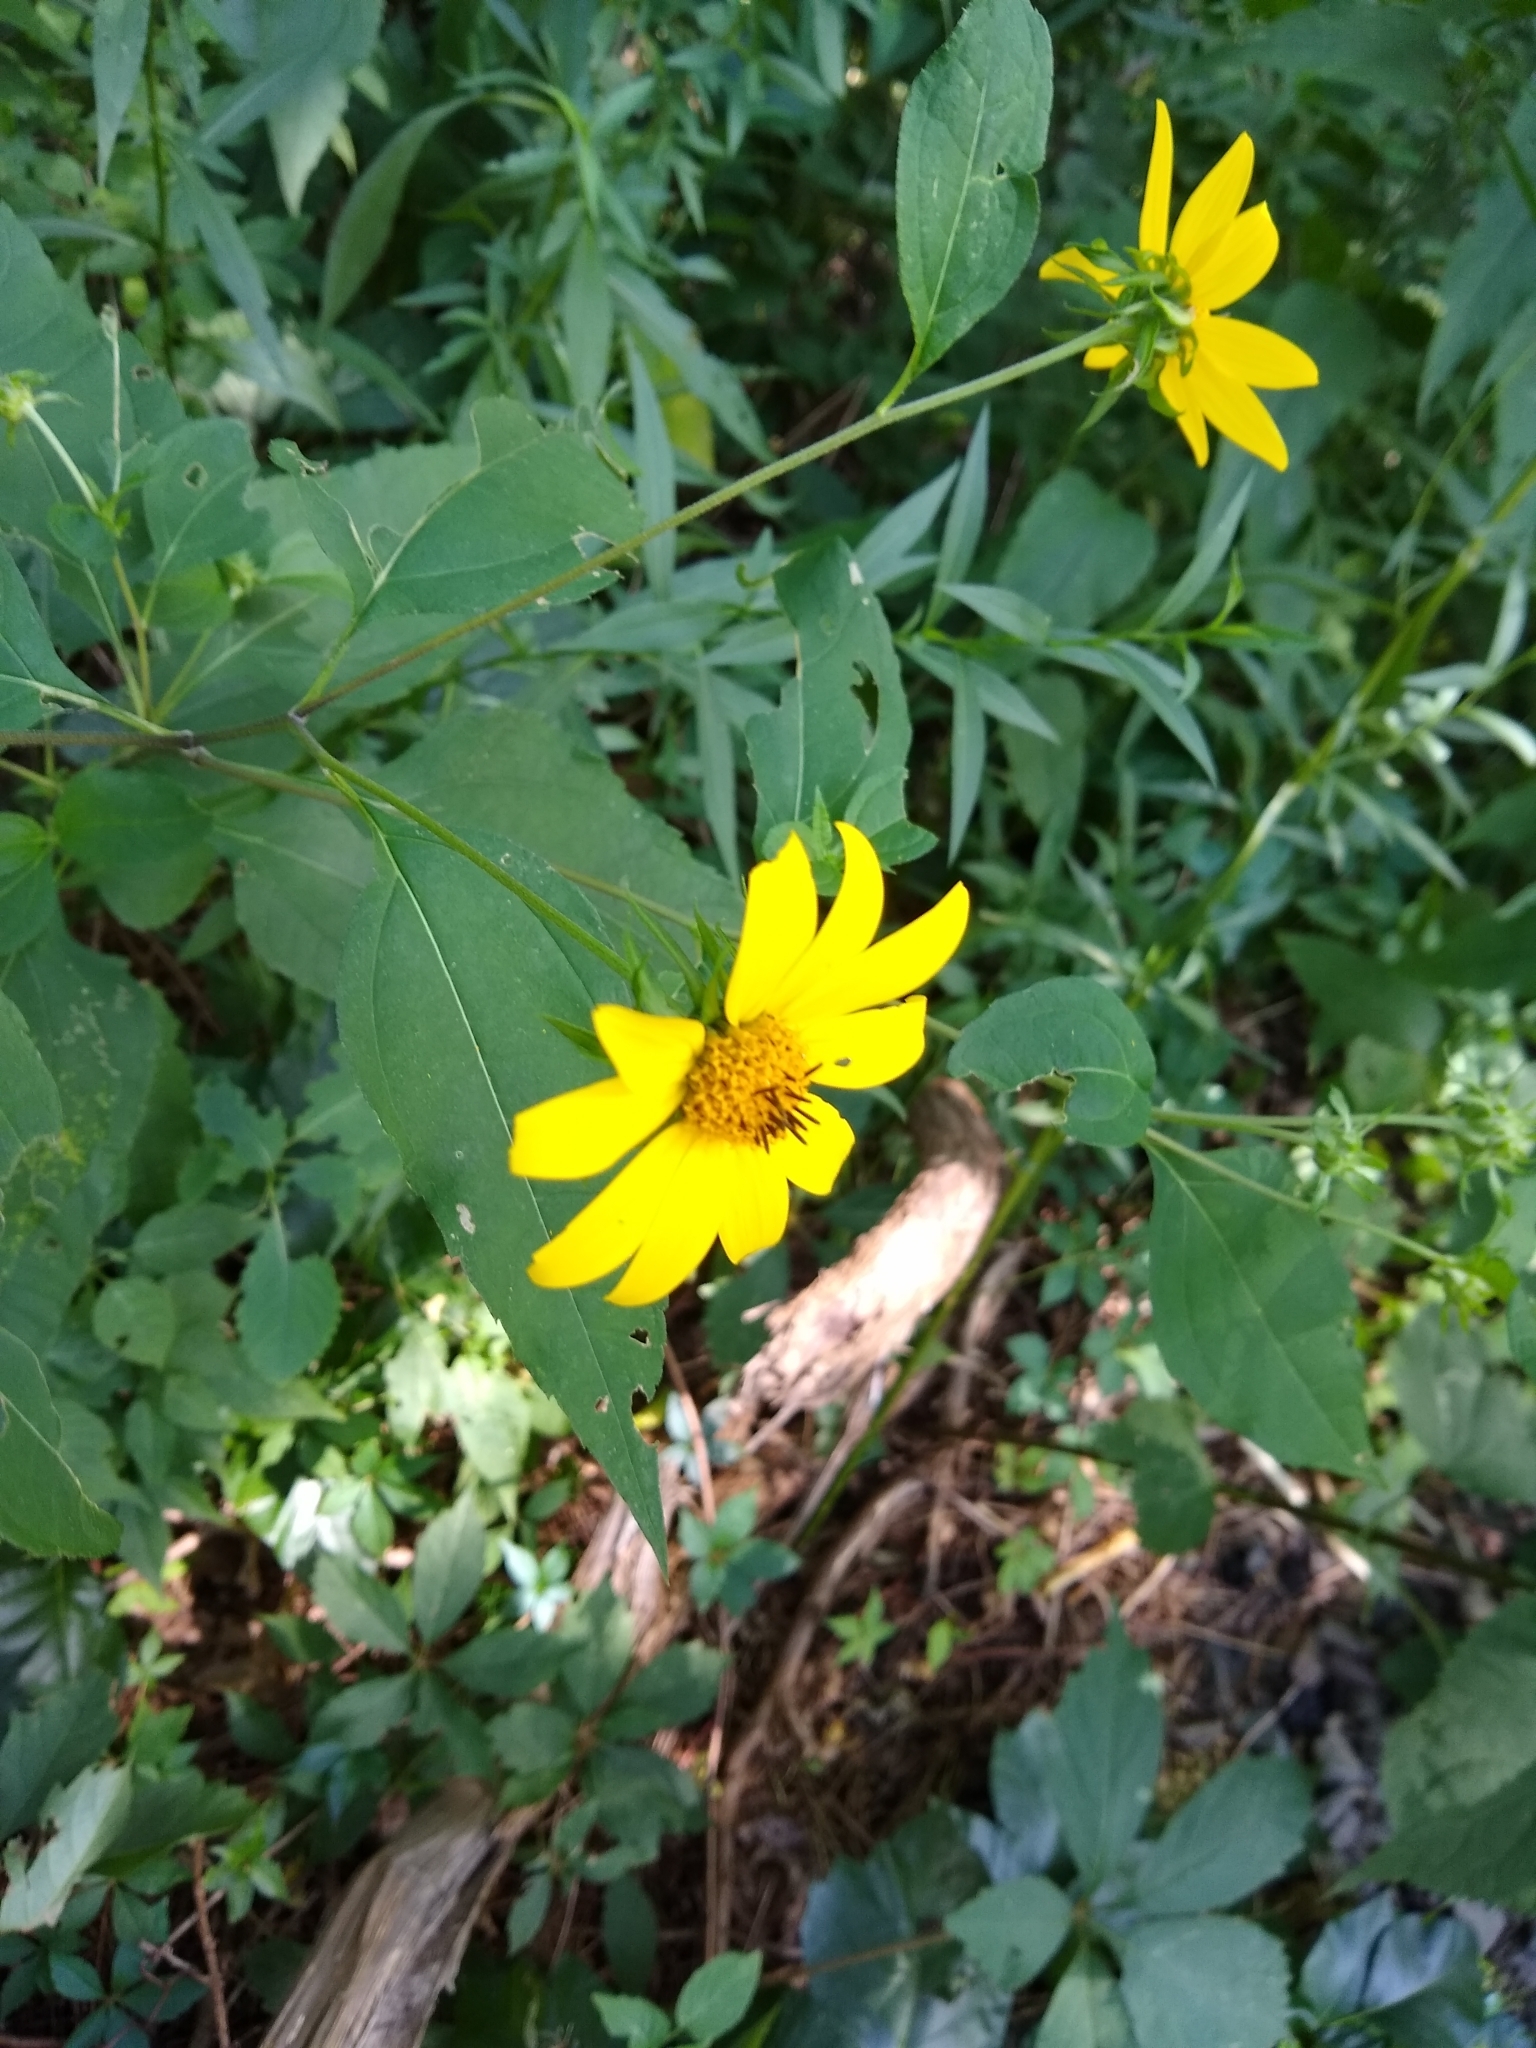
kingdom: Plantae
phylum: Tracheophyta
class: Magnoliopsida
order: Asterales
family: Asteraceae
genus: Helianthus
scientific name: Helianthus decapetalus
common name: Thin-leaved sunflower
